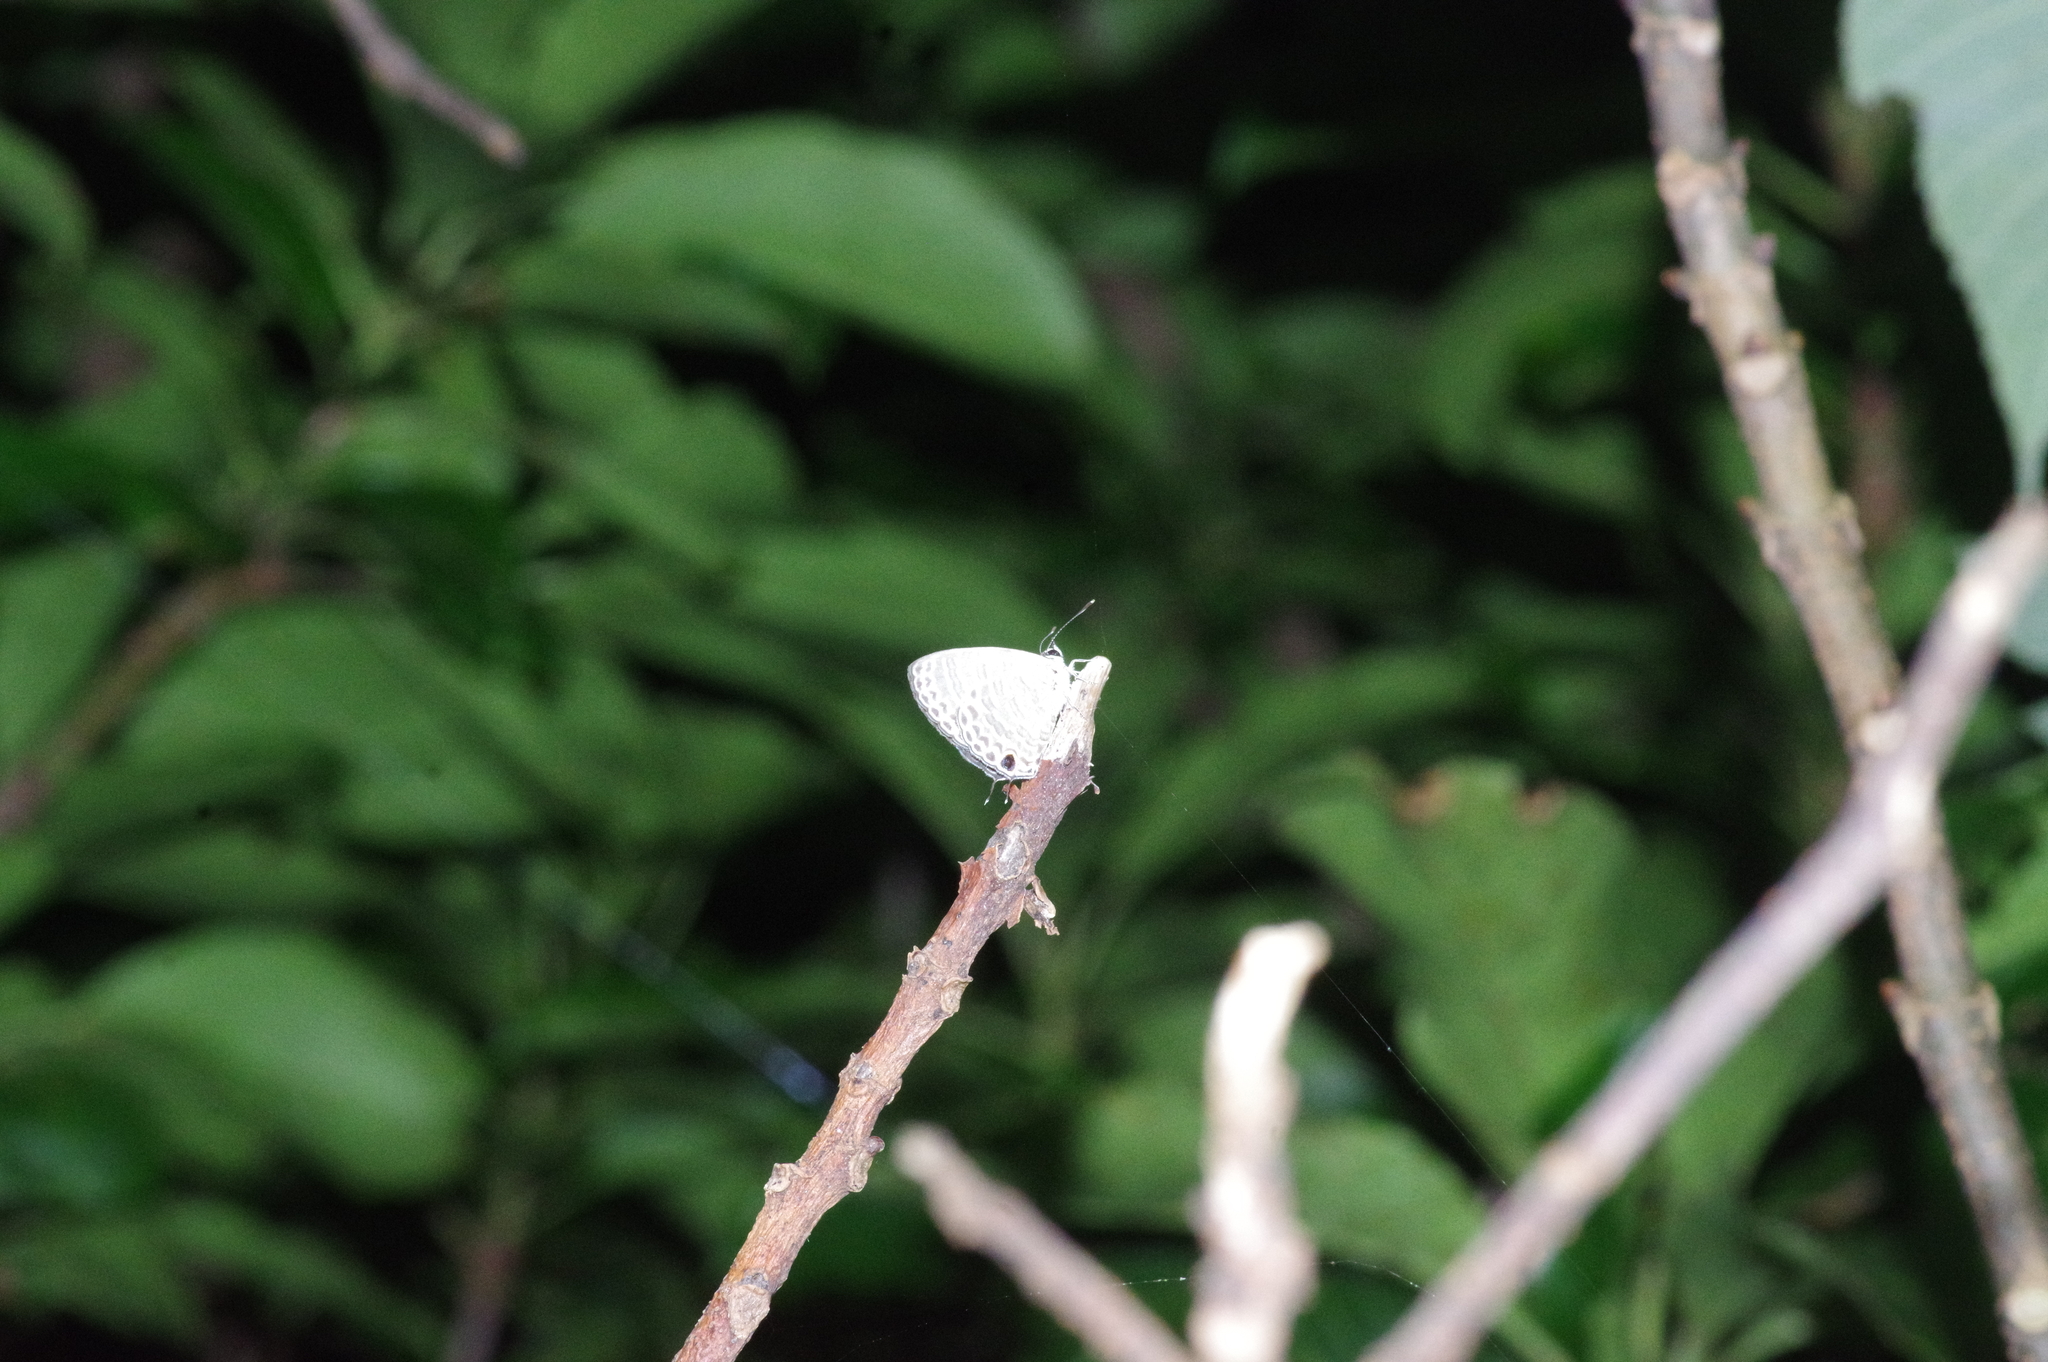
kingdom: Animalia
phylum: Arthropoda
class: Insecta
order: Lepidoptera
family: Lycaenidae
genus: Nacaduba
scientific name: Nacaduba kurava
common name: Transparent 6-line blue
